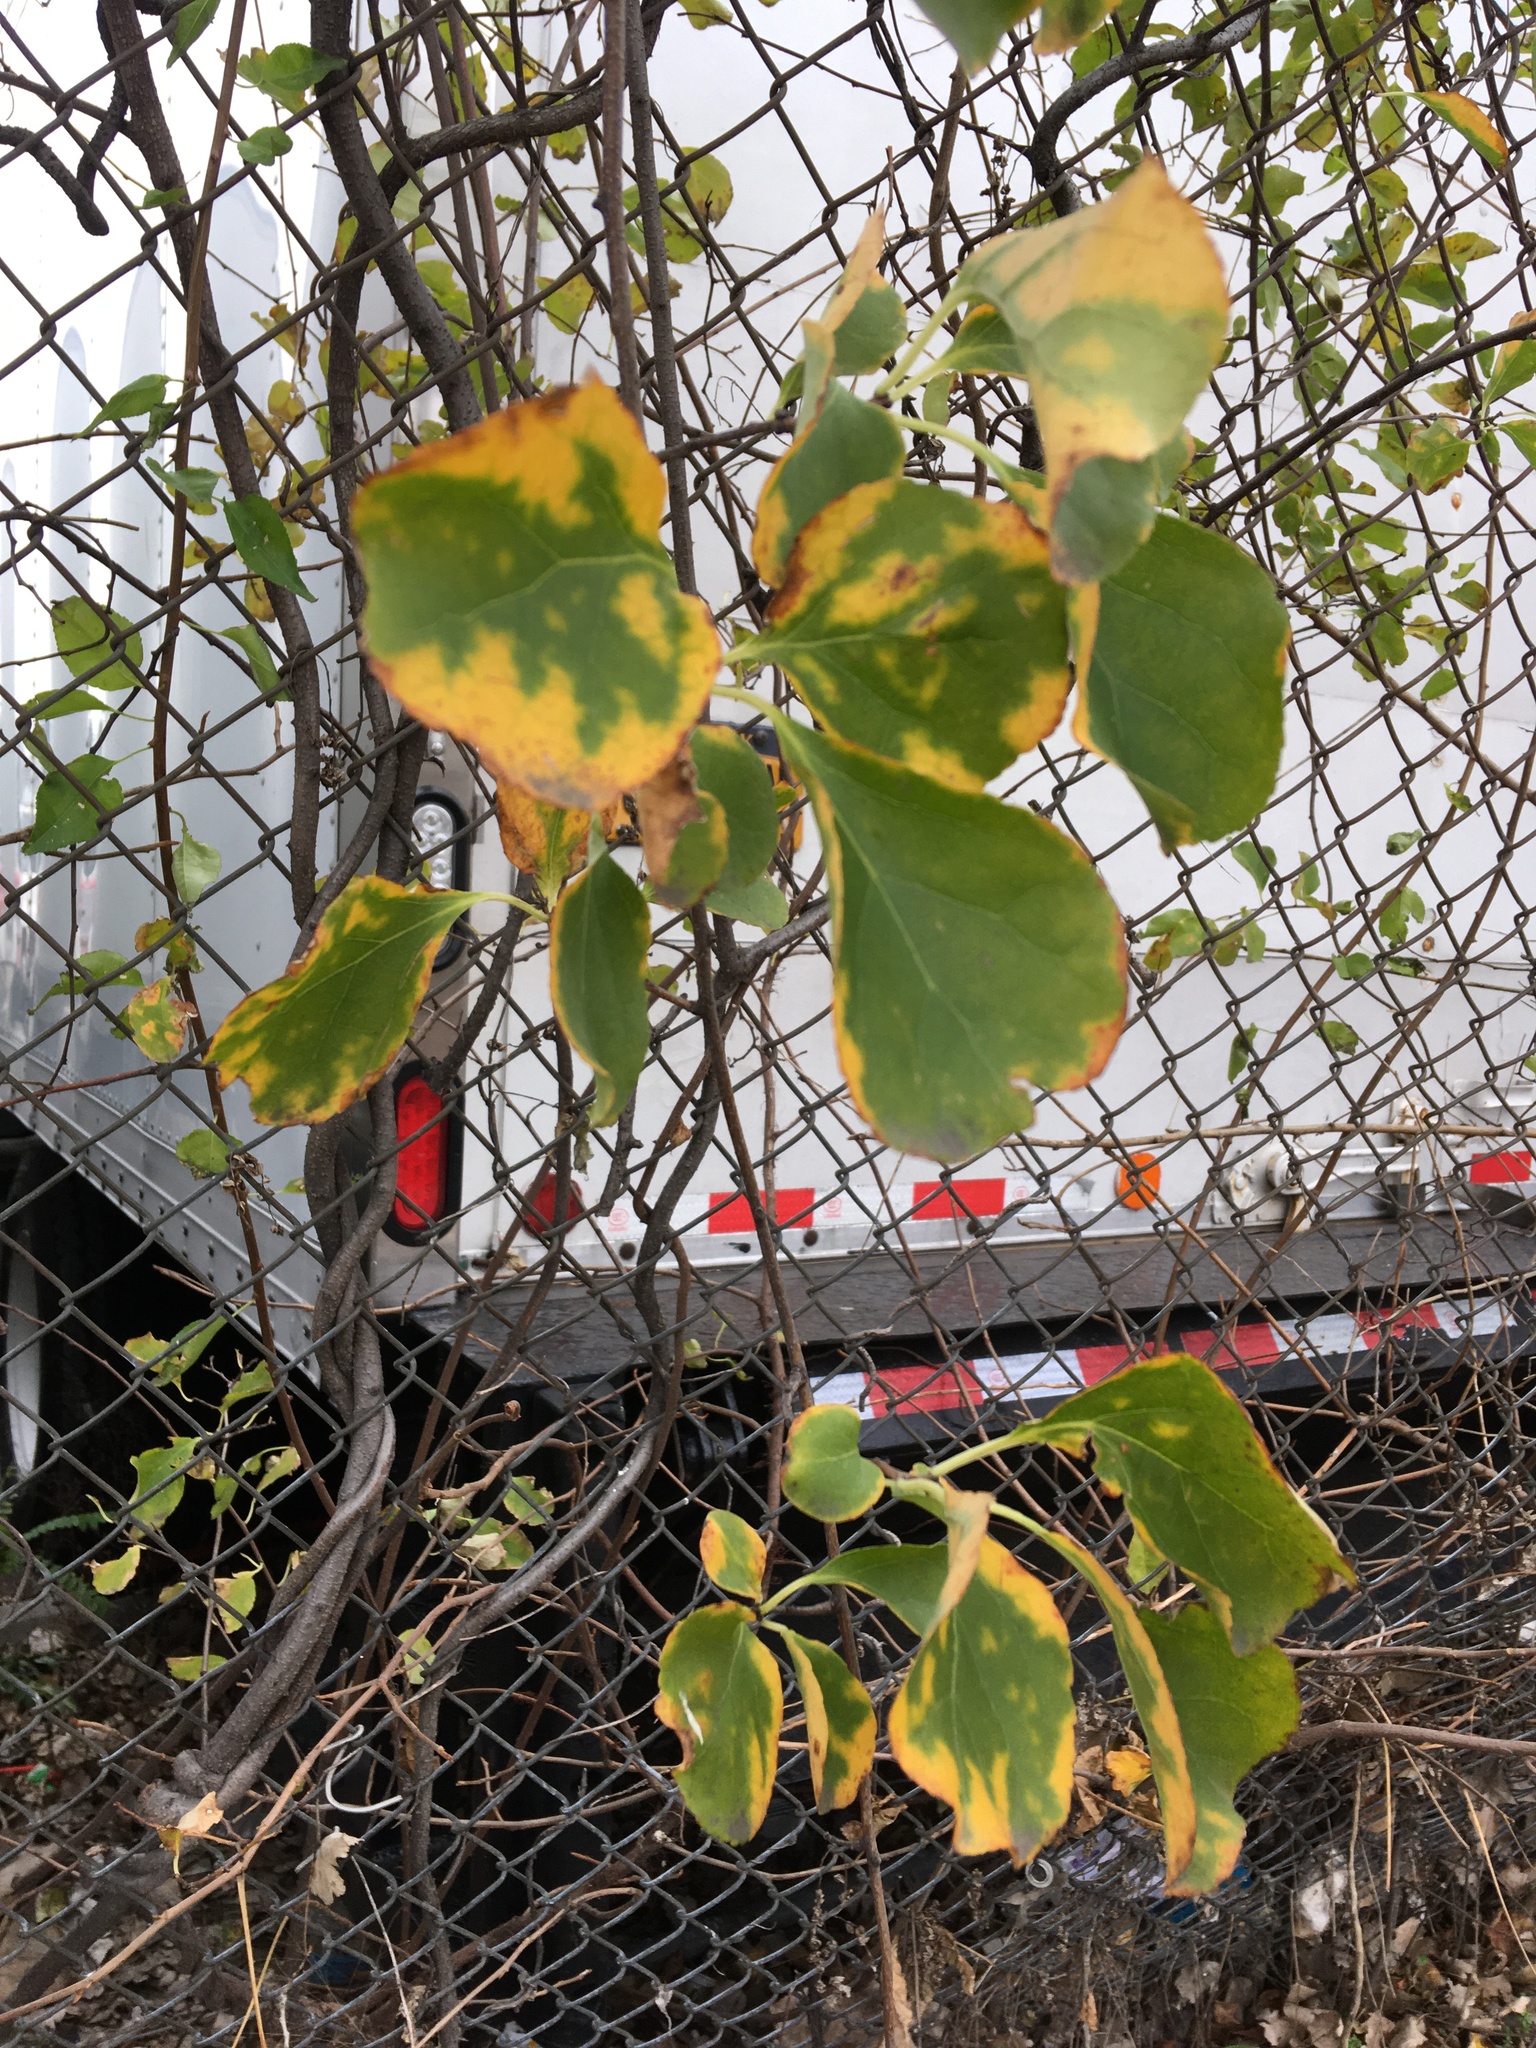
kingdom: Plantae
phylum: Tracheophyta
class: Magnoliopsida
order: Celastrales
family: Celastraceae
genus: Celastrus
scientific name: Celastrus orbiculatus
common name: Oriental bittersweet
